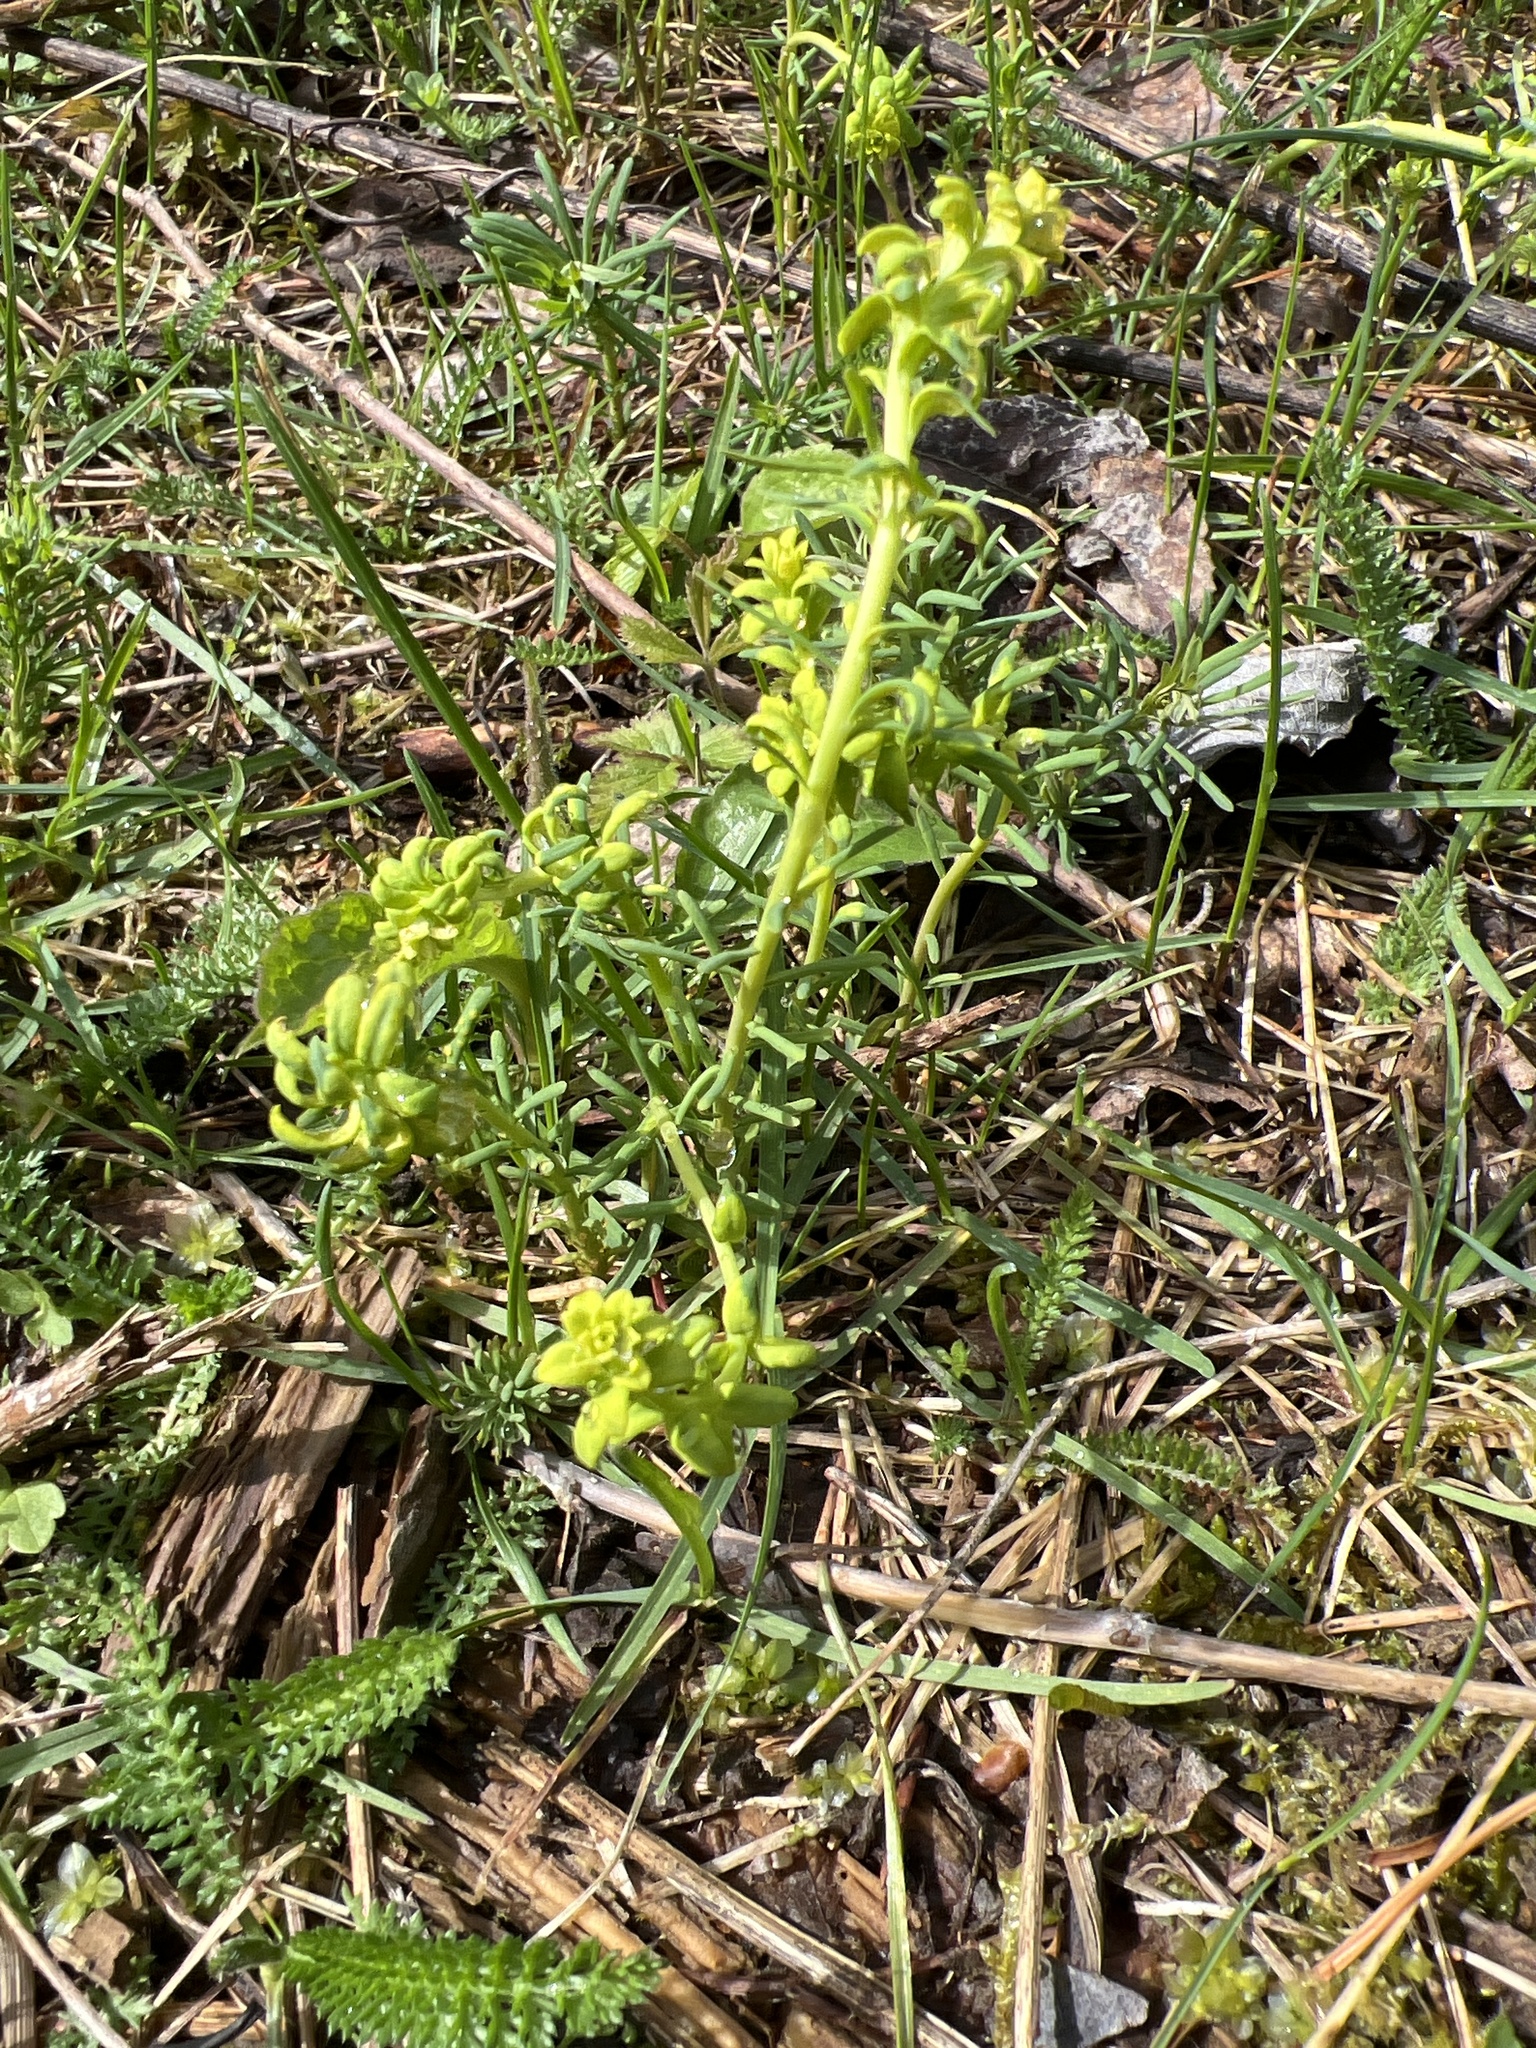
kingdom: Plantae
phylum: Tracheophyta
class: Magnoliopsida
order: Malpighiales
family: Euphorbiaceae
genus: Euphorbia
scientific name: Euphorbia cyparissias
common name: Cypress spurge
